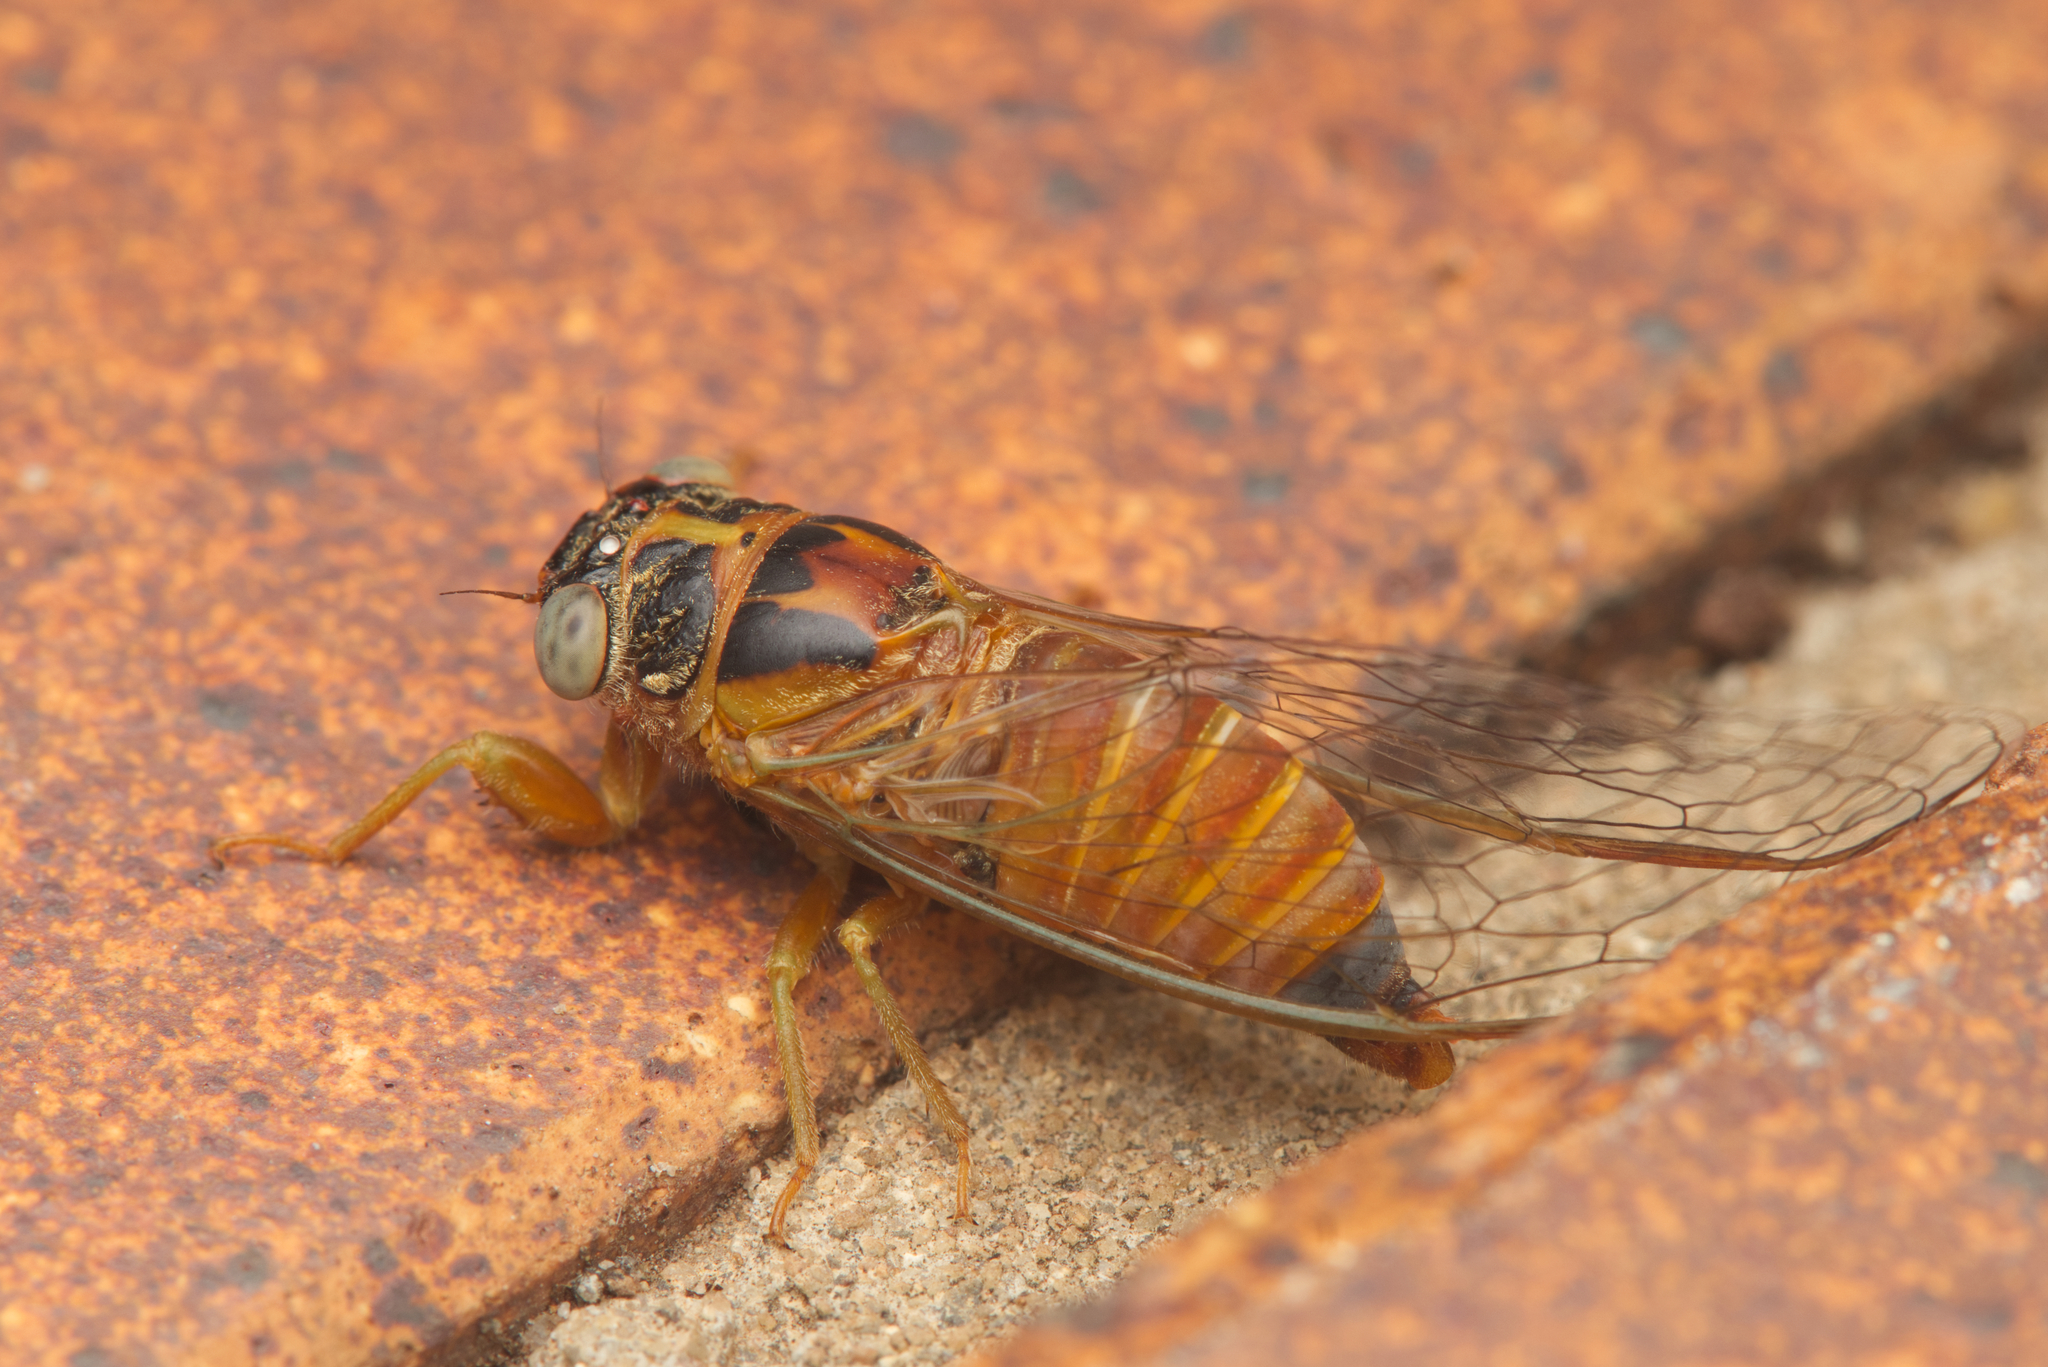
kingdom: Animalia
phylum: Arthropoda
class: Insecta
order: Hemiptera
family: Cicadidae
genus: Palapsalta
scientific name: Palapsalta eyrei
